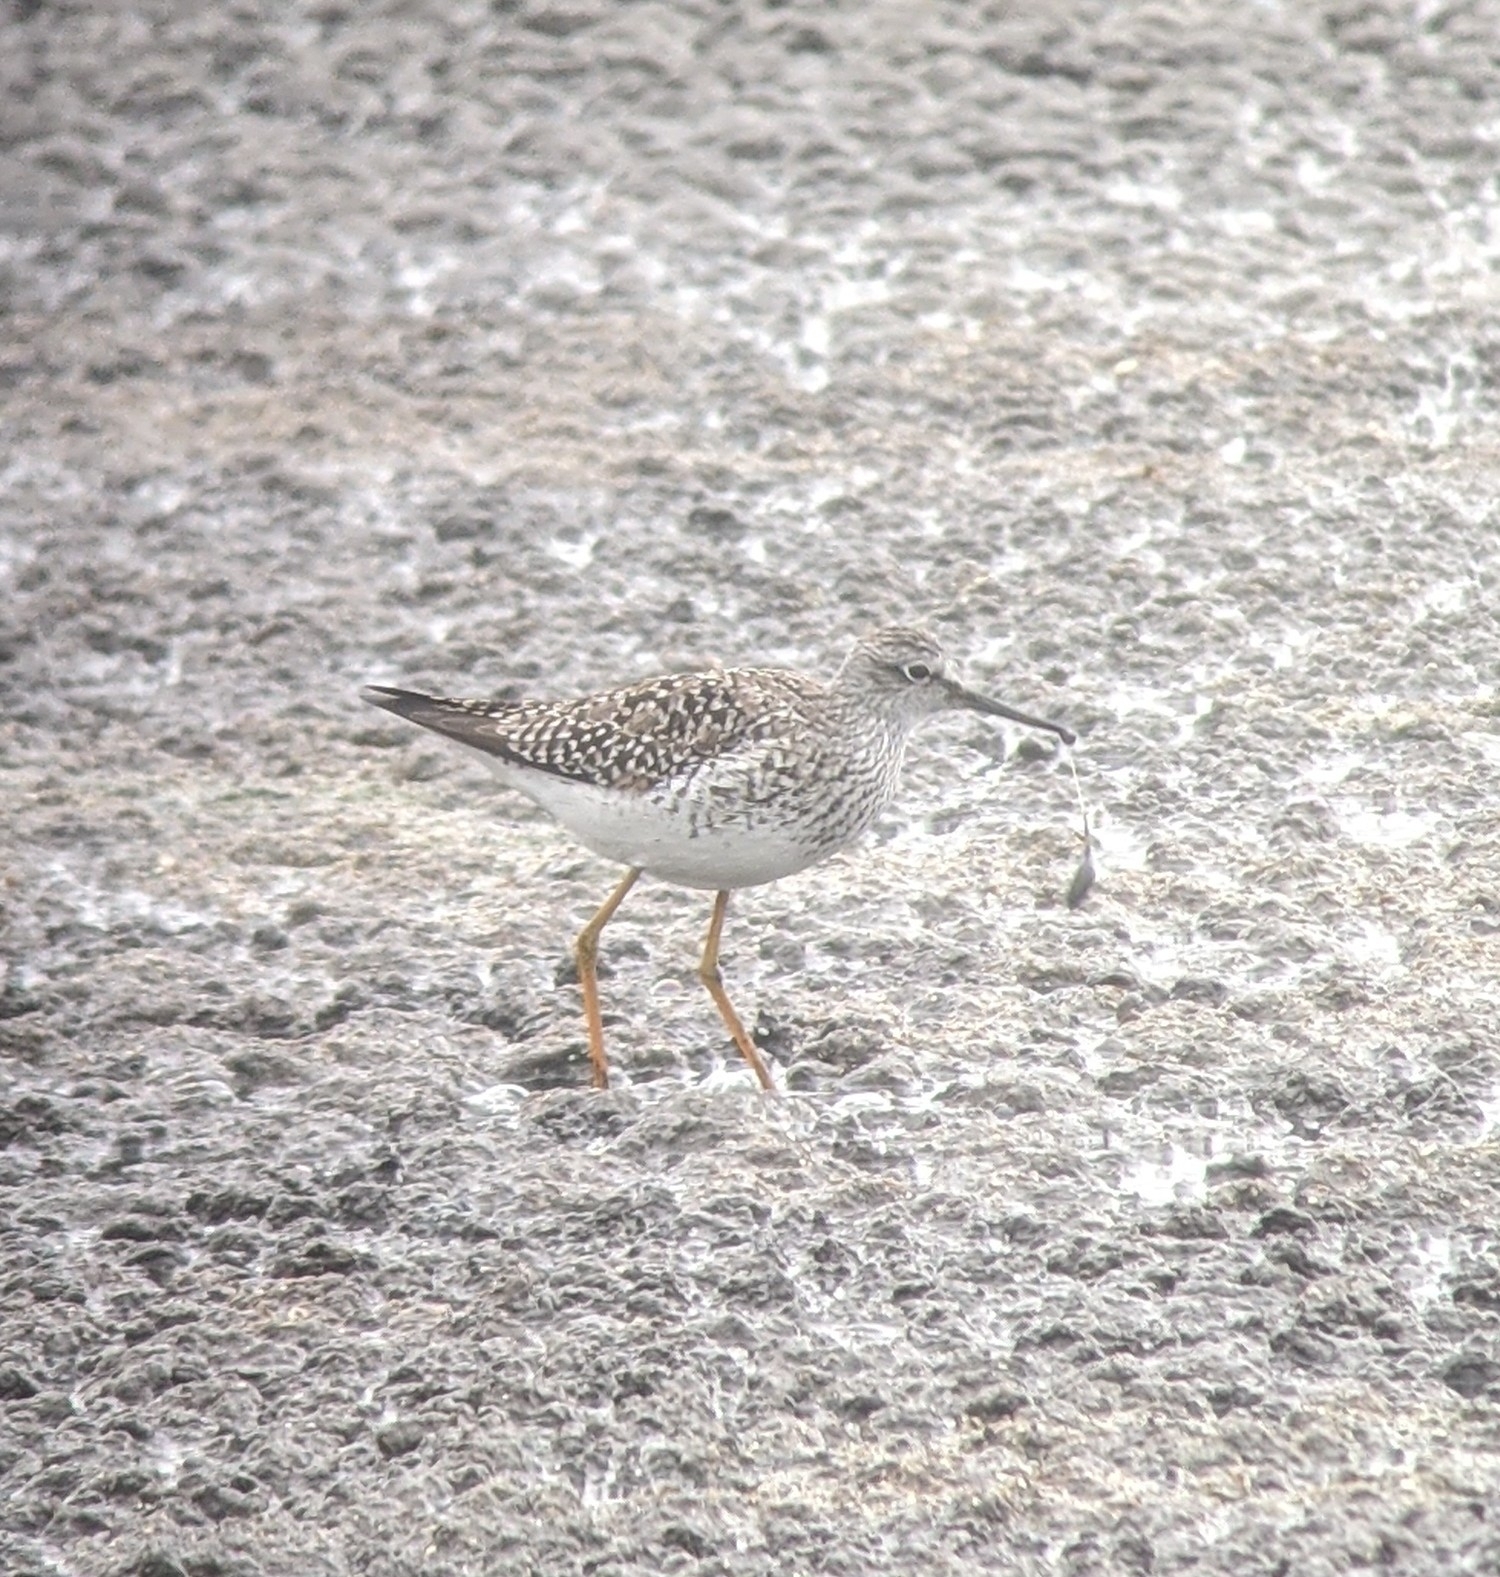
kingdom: Animalia
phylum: Chordata
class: Aves
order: Charadriiformes
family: Scolopacidae
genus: Tringa
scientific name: Tringa flavipes
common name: Lesser yellowlegs
